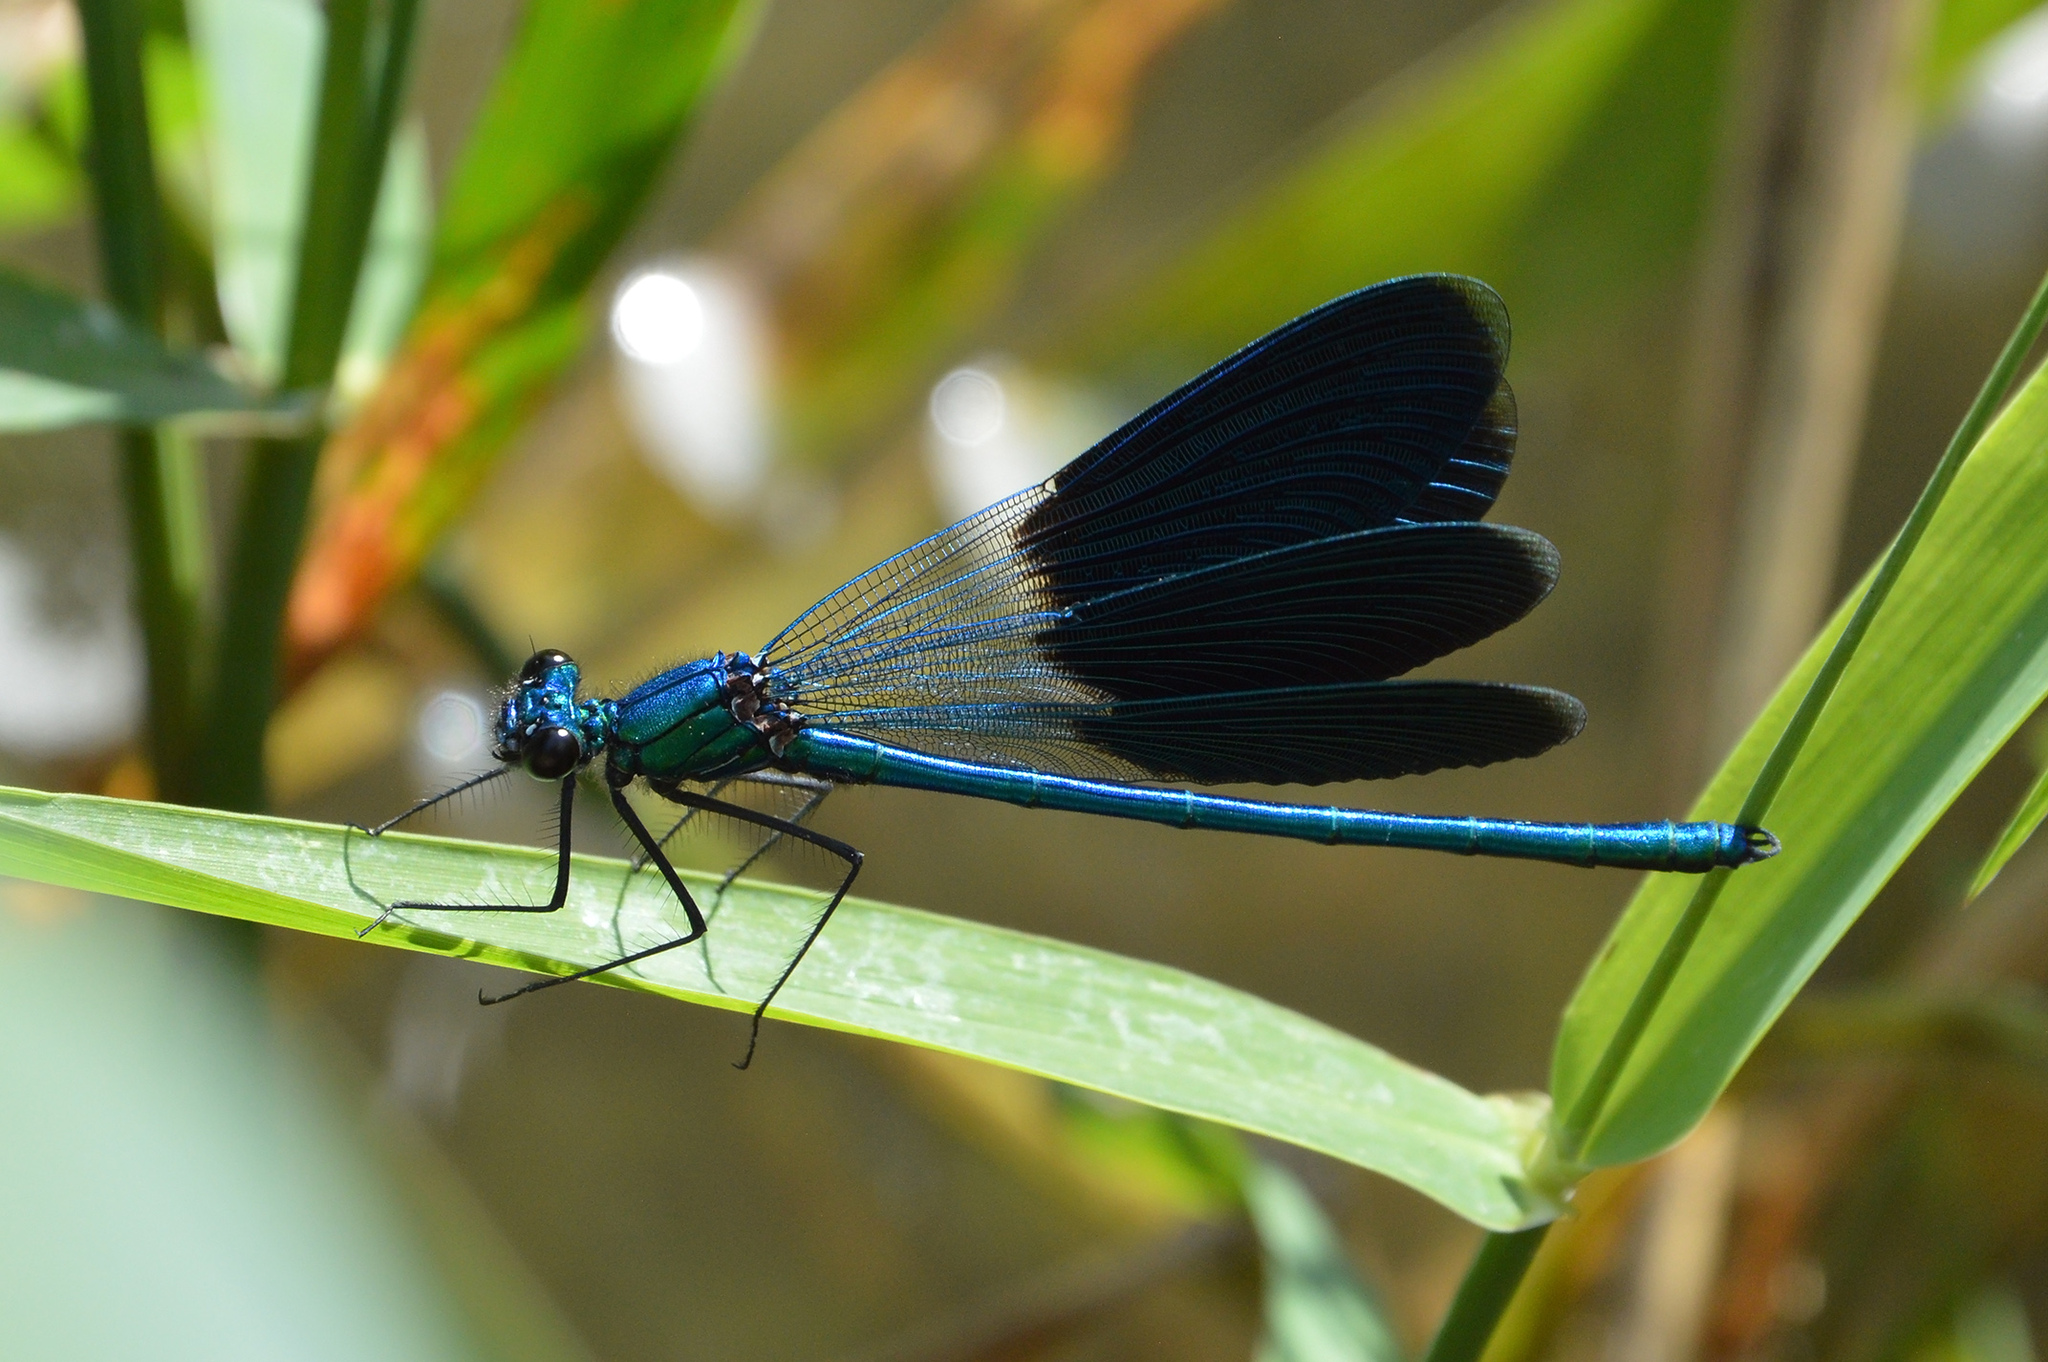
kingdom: Animalia
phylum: Arthropoda
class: Insecta
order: Odonata
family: Calopterygidae
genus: Calopteryx
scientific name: Calopteryx splendens
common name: Banded demoiselle
